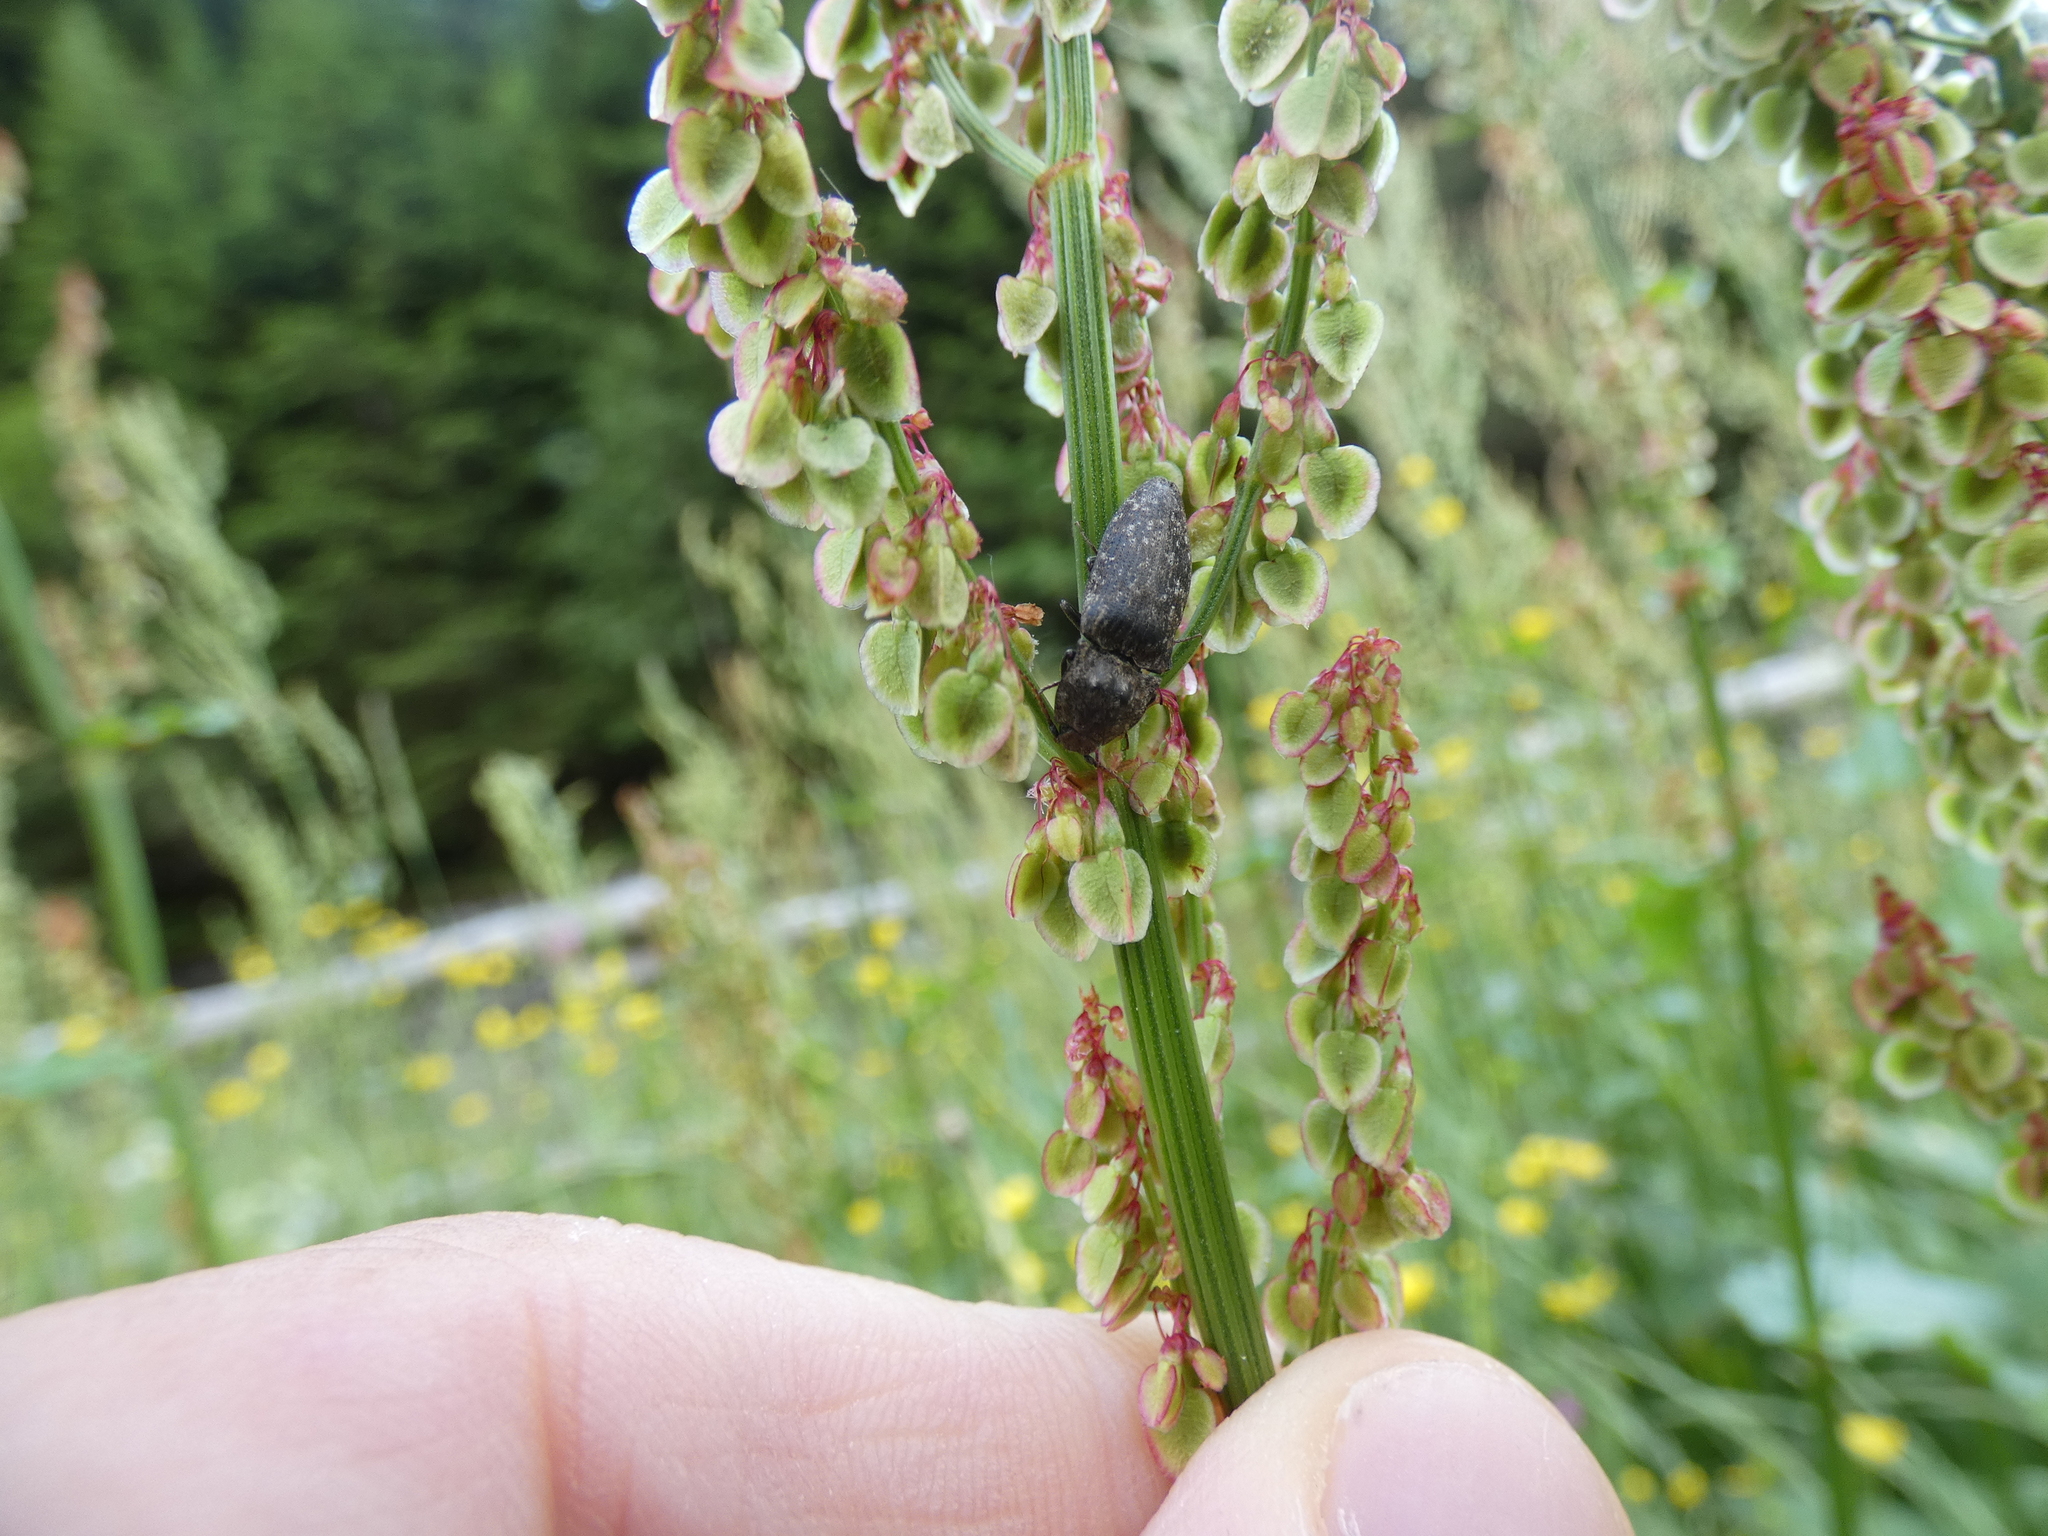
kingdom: Animalia
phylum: Arthropoda
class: Insecta
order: Coleoptera
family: Elateridae
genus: Agrypnus
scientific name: Agrypnus murinus
